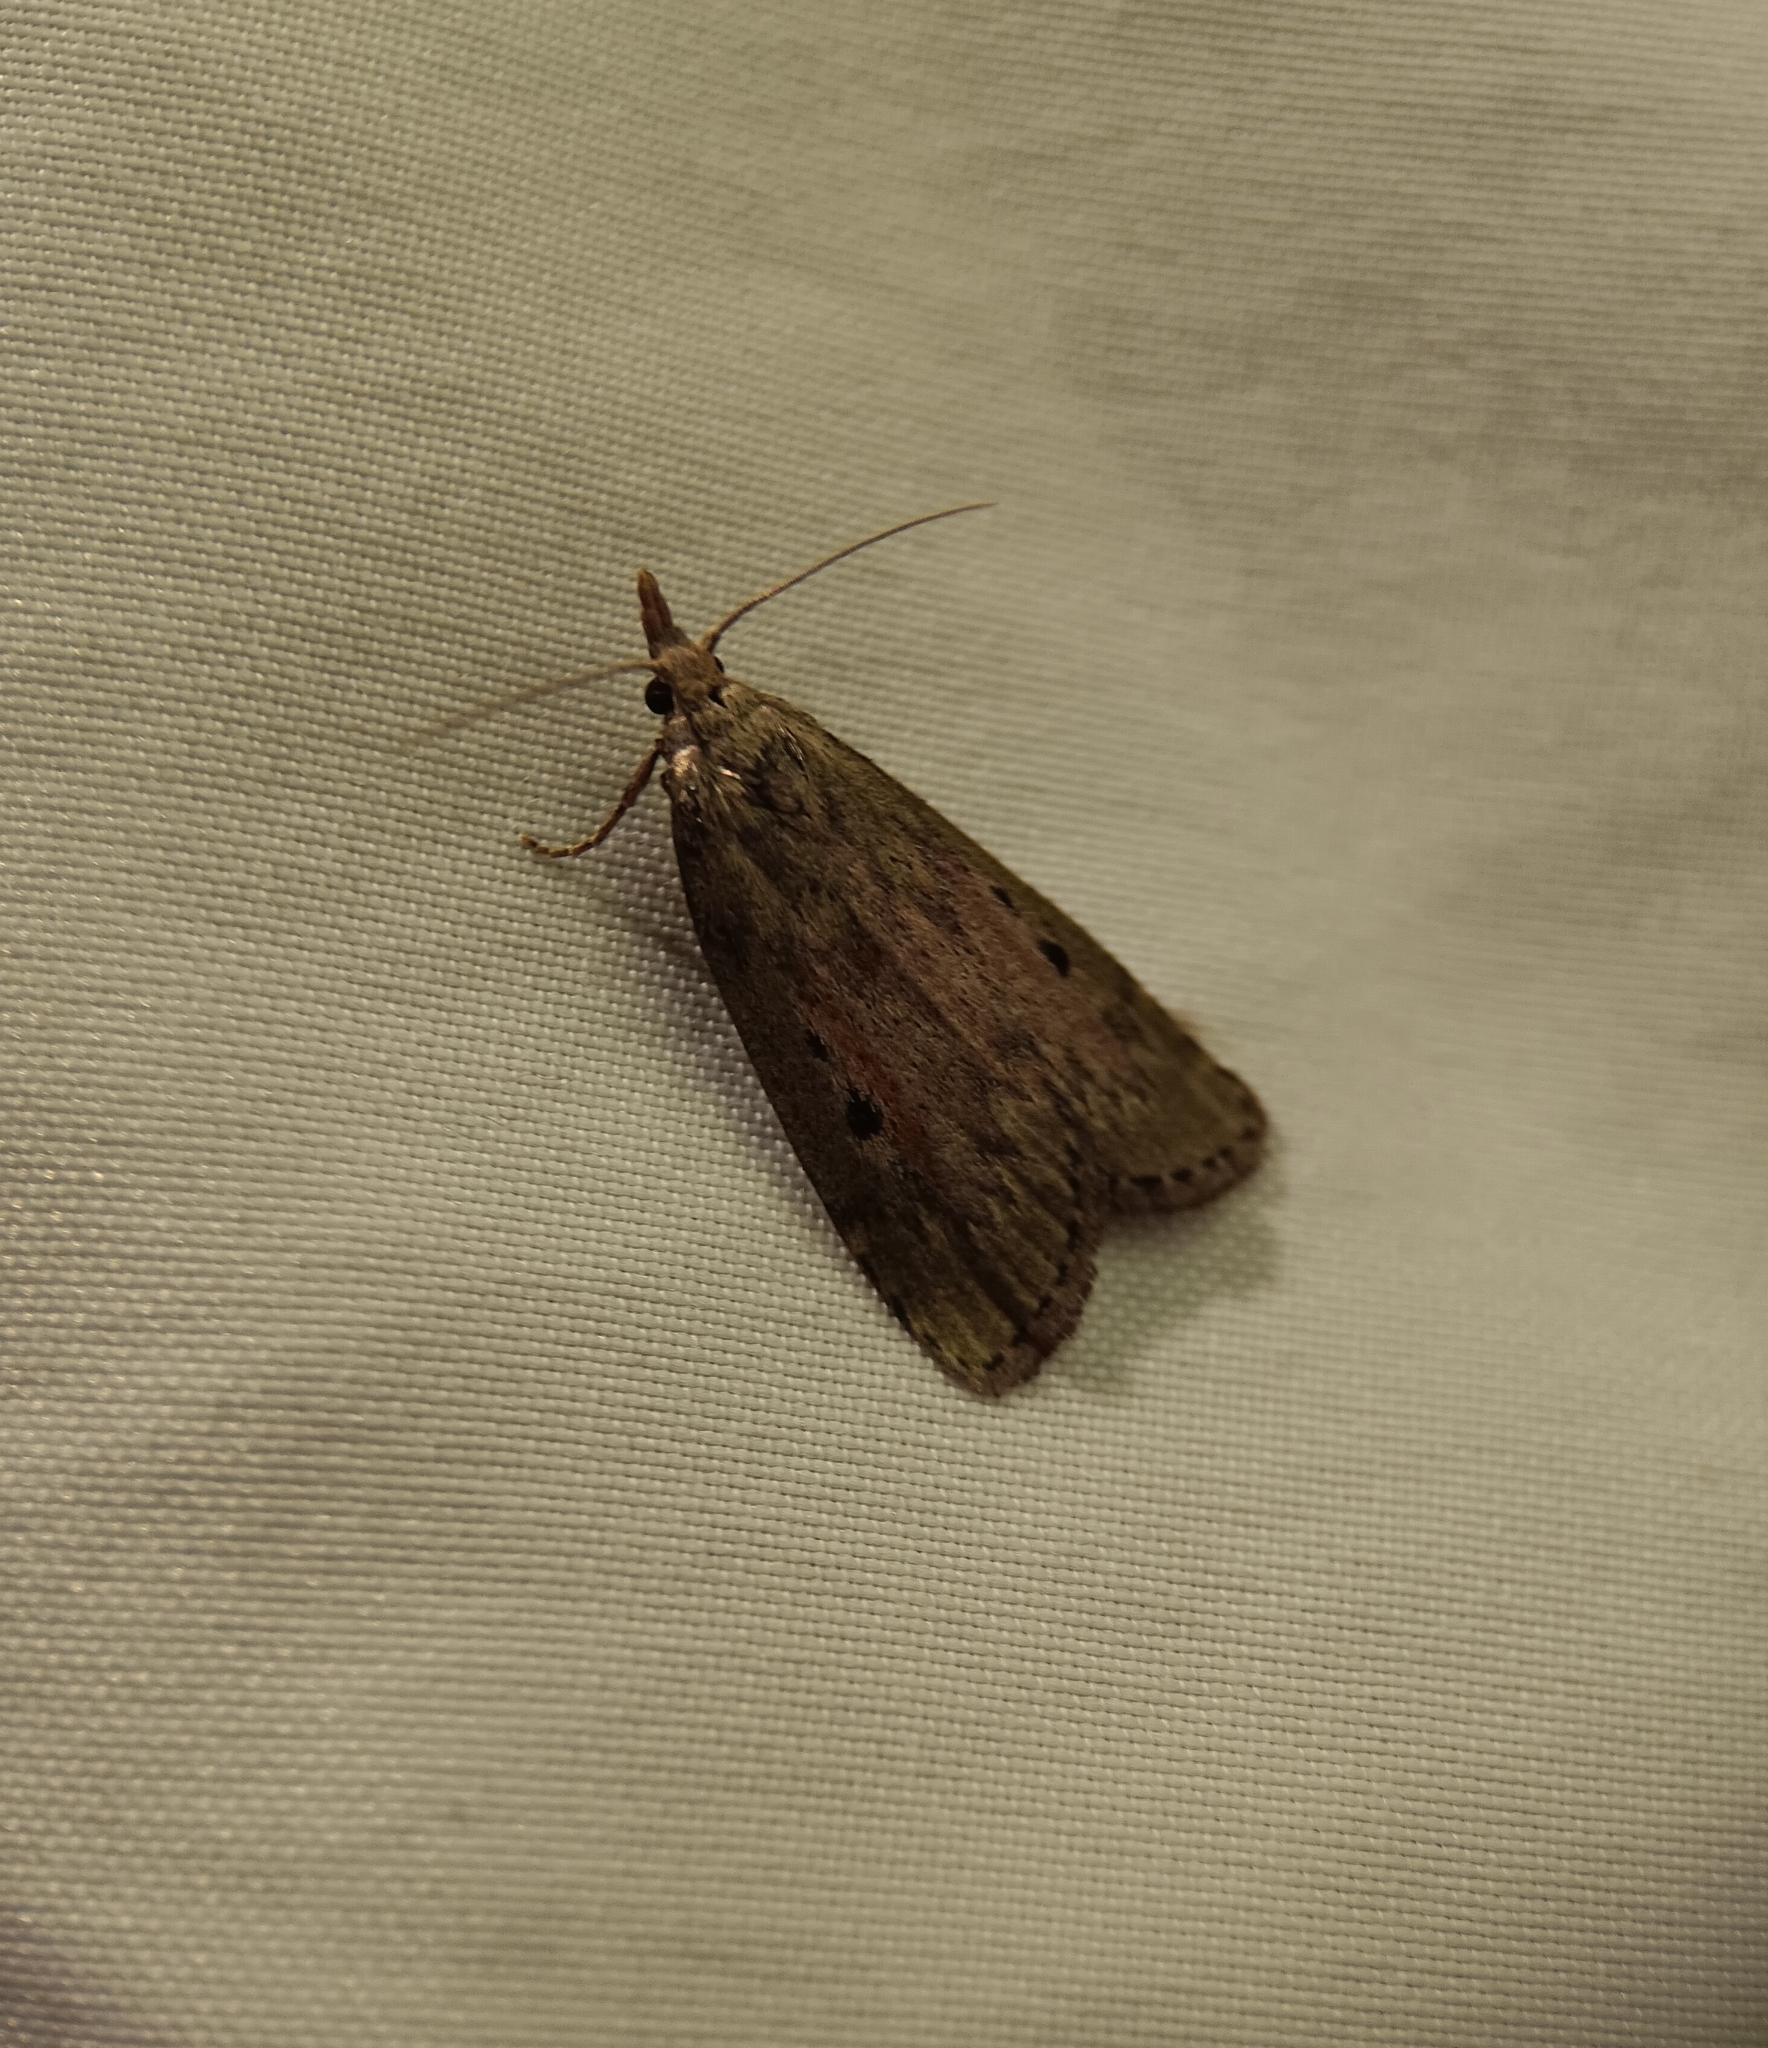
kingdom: Animalia
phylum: Arthropoda
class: Insecta
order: Lepidoptera
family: Pyralidae
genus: Aphomia
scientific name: Aphomia sociella
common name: Bee moth
